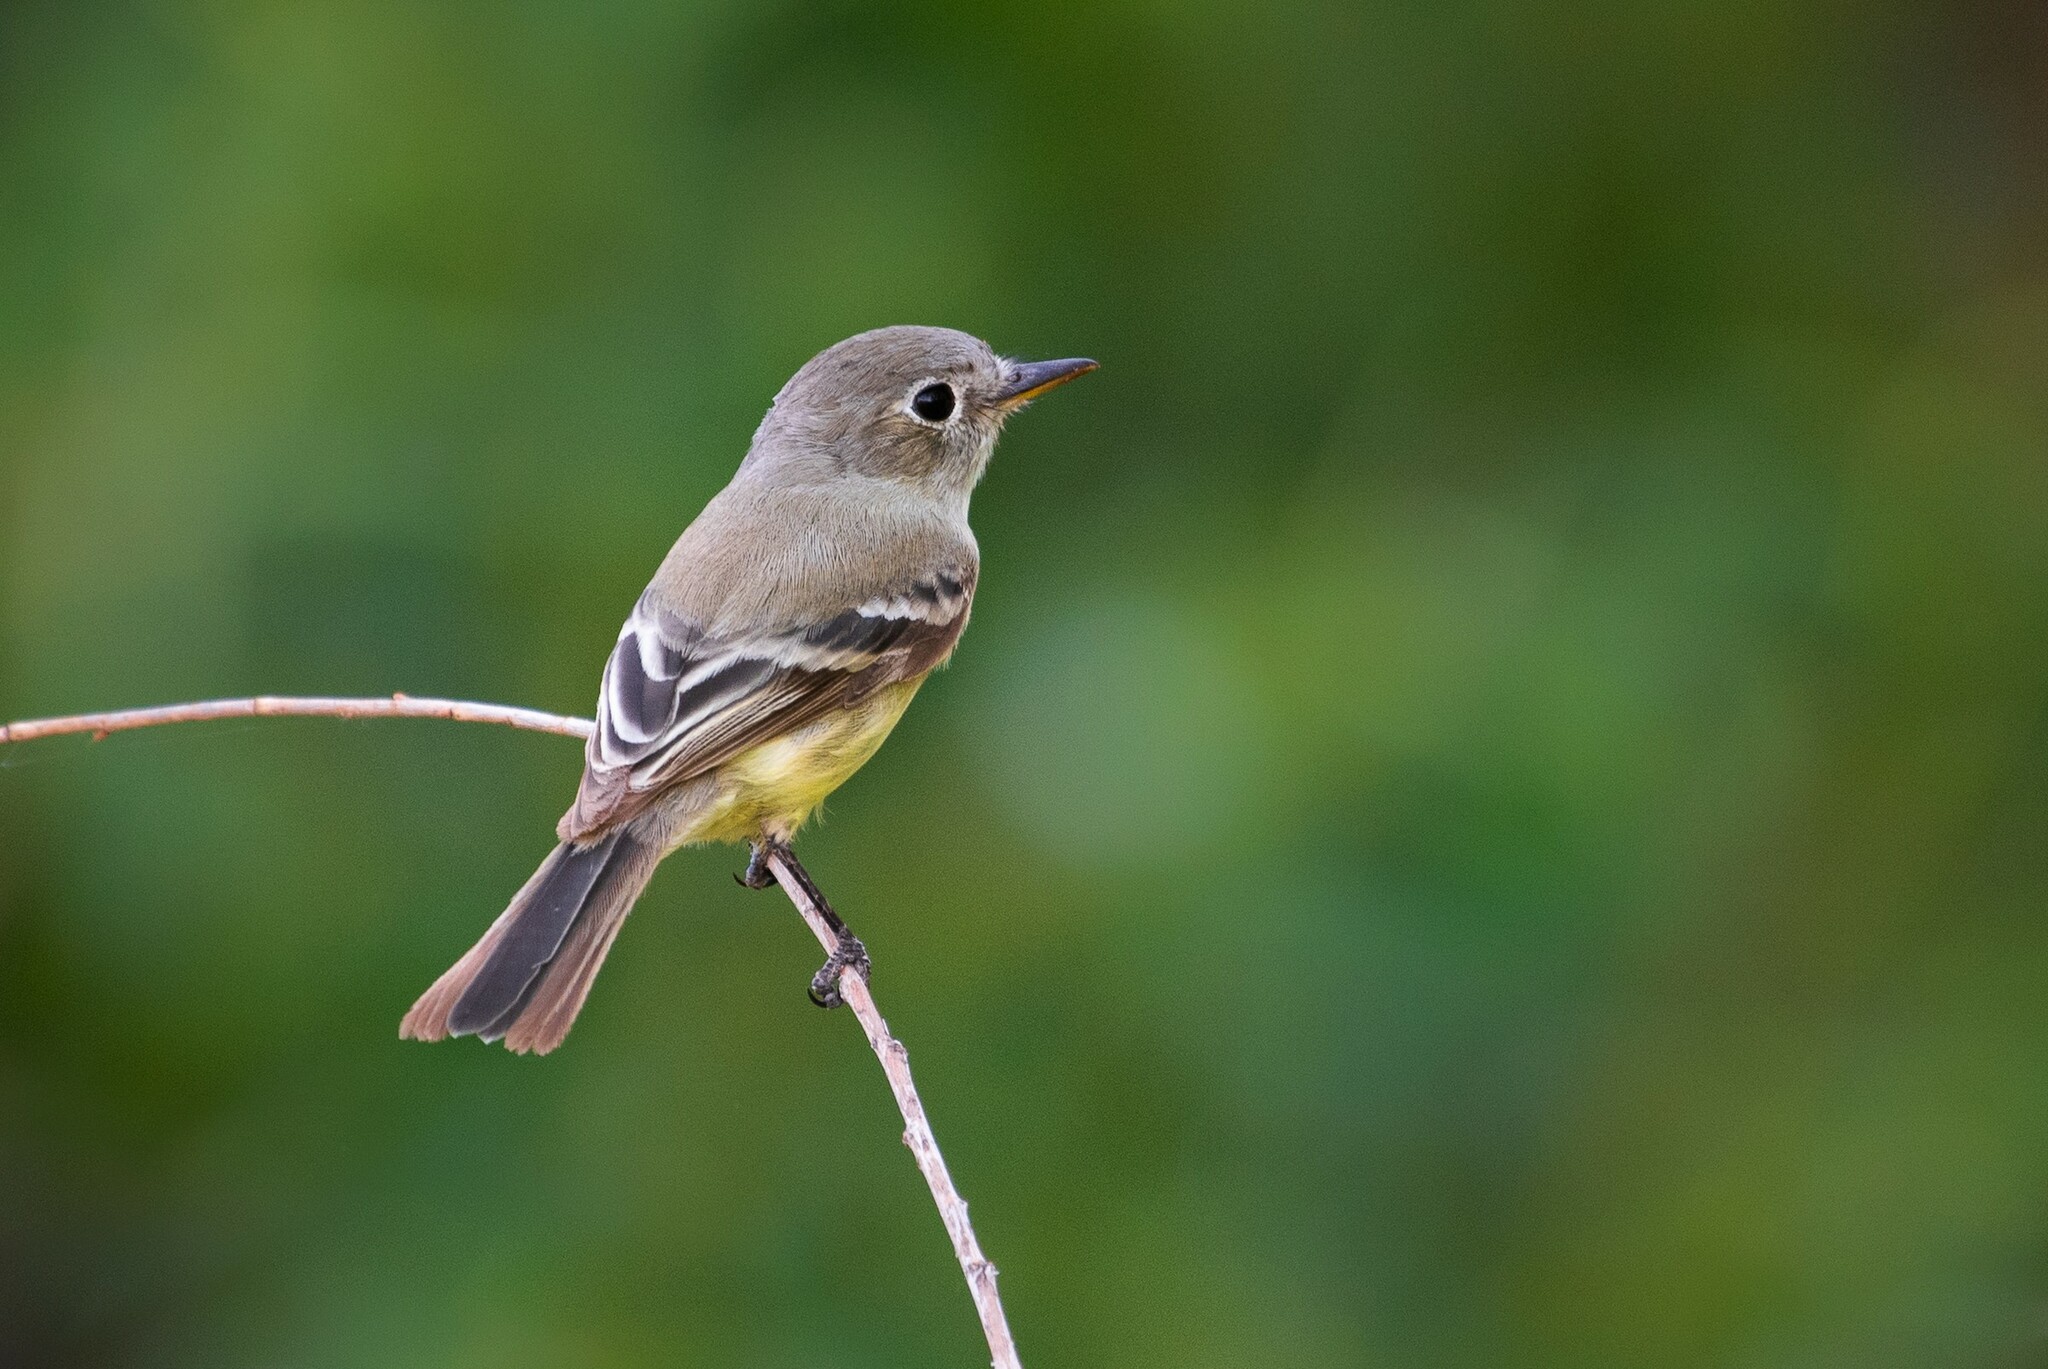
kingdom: Animalia
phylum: Chordata
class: Aves
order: Passeriformes
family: Tyrannidae
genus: Empidonax
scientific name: Empidonax wrightii
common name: Gray flycatcher
